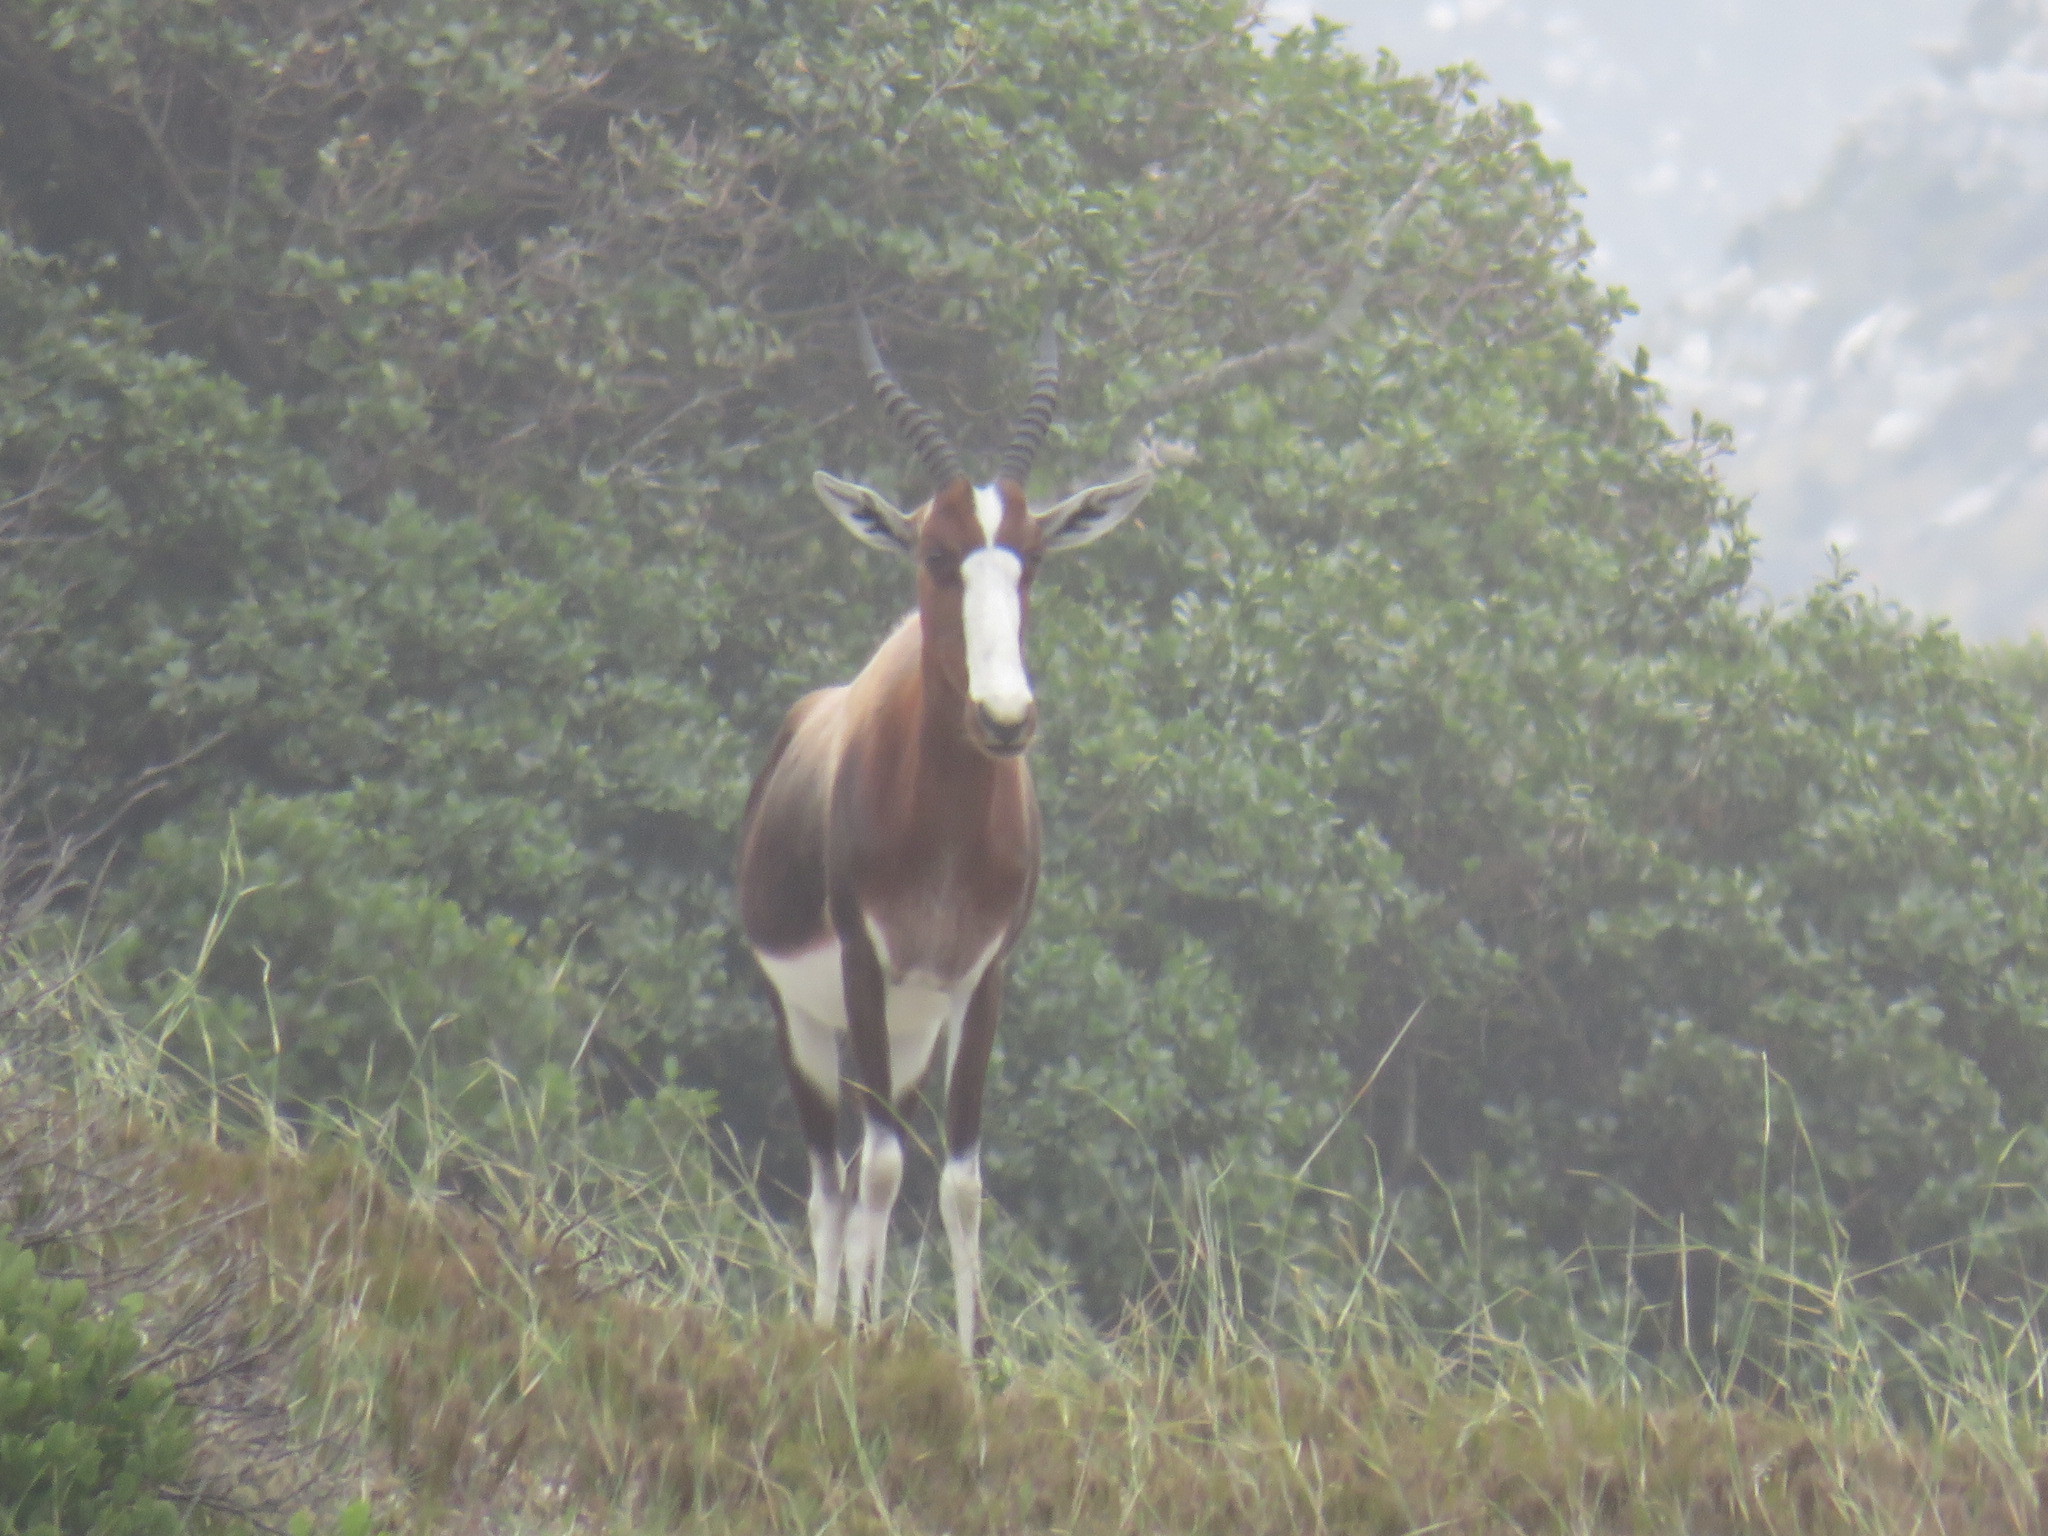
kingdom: Animalia
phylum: Chordata
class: Mammalia
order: Artiodactyla
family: Bovidae
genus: Damaliscus
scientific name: Damaliscus pygargus
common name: Bontebok
